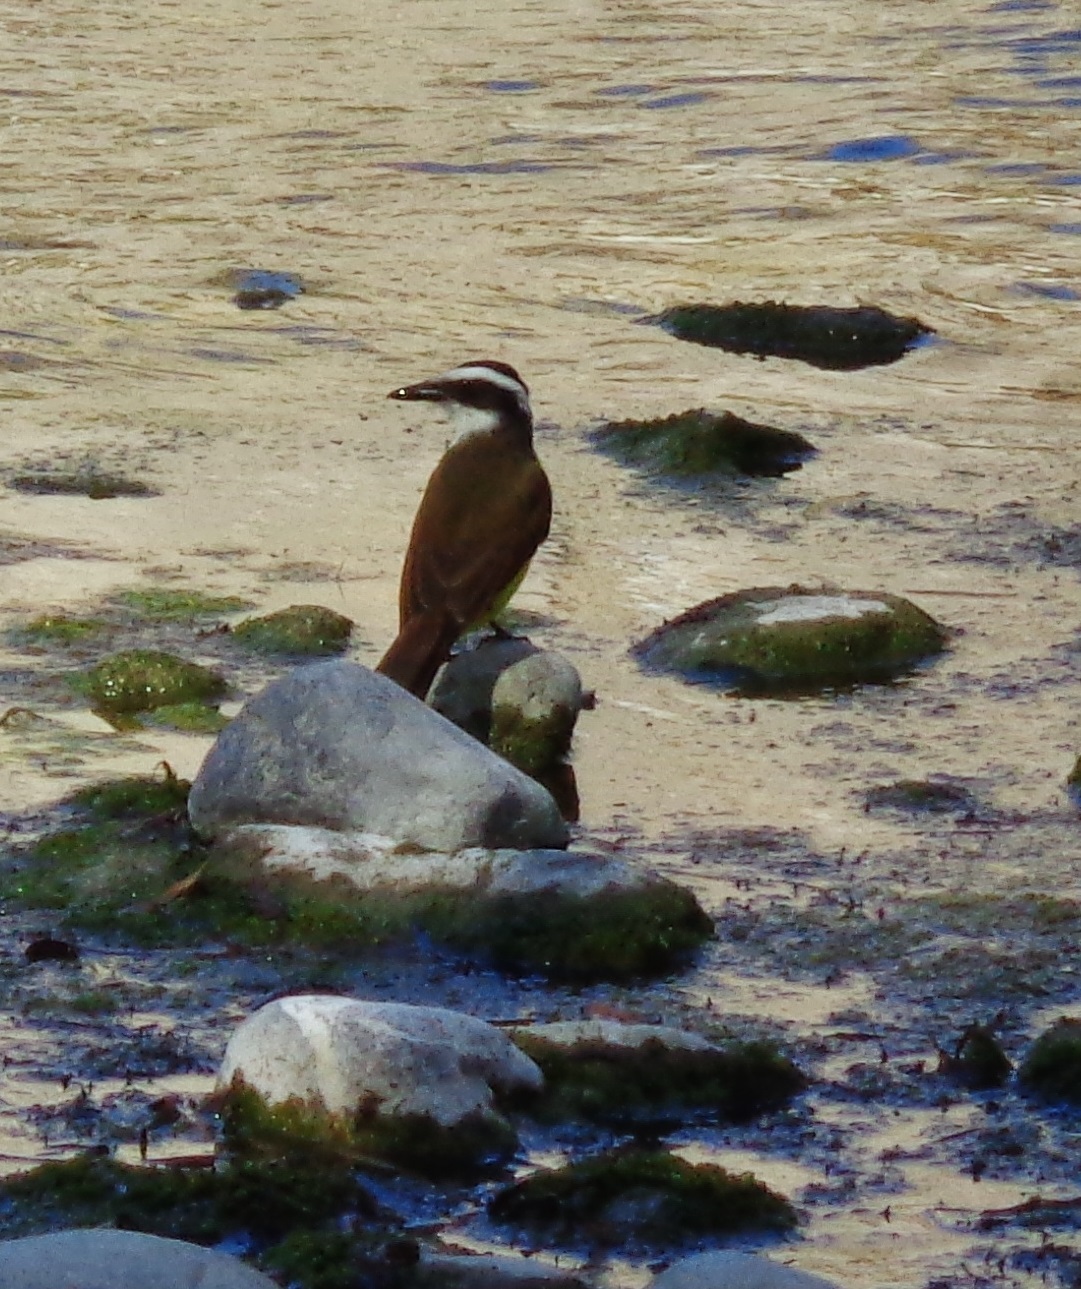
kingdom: Animalia
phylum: Chordata
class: Aves
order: Passeriformes
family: Tyrannidae
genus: Pitangus
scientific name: Pitangus sulphuratus
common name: Great kiskadee
